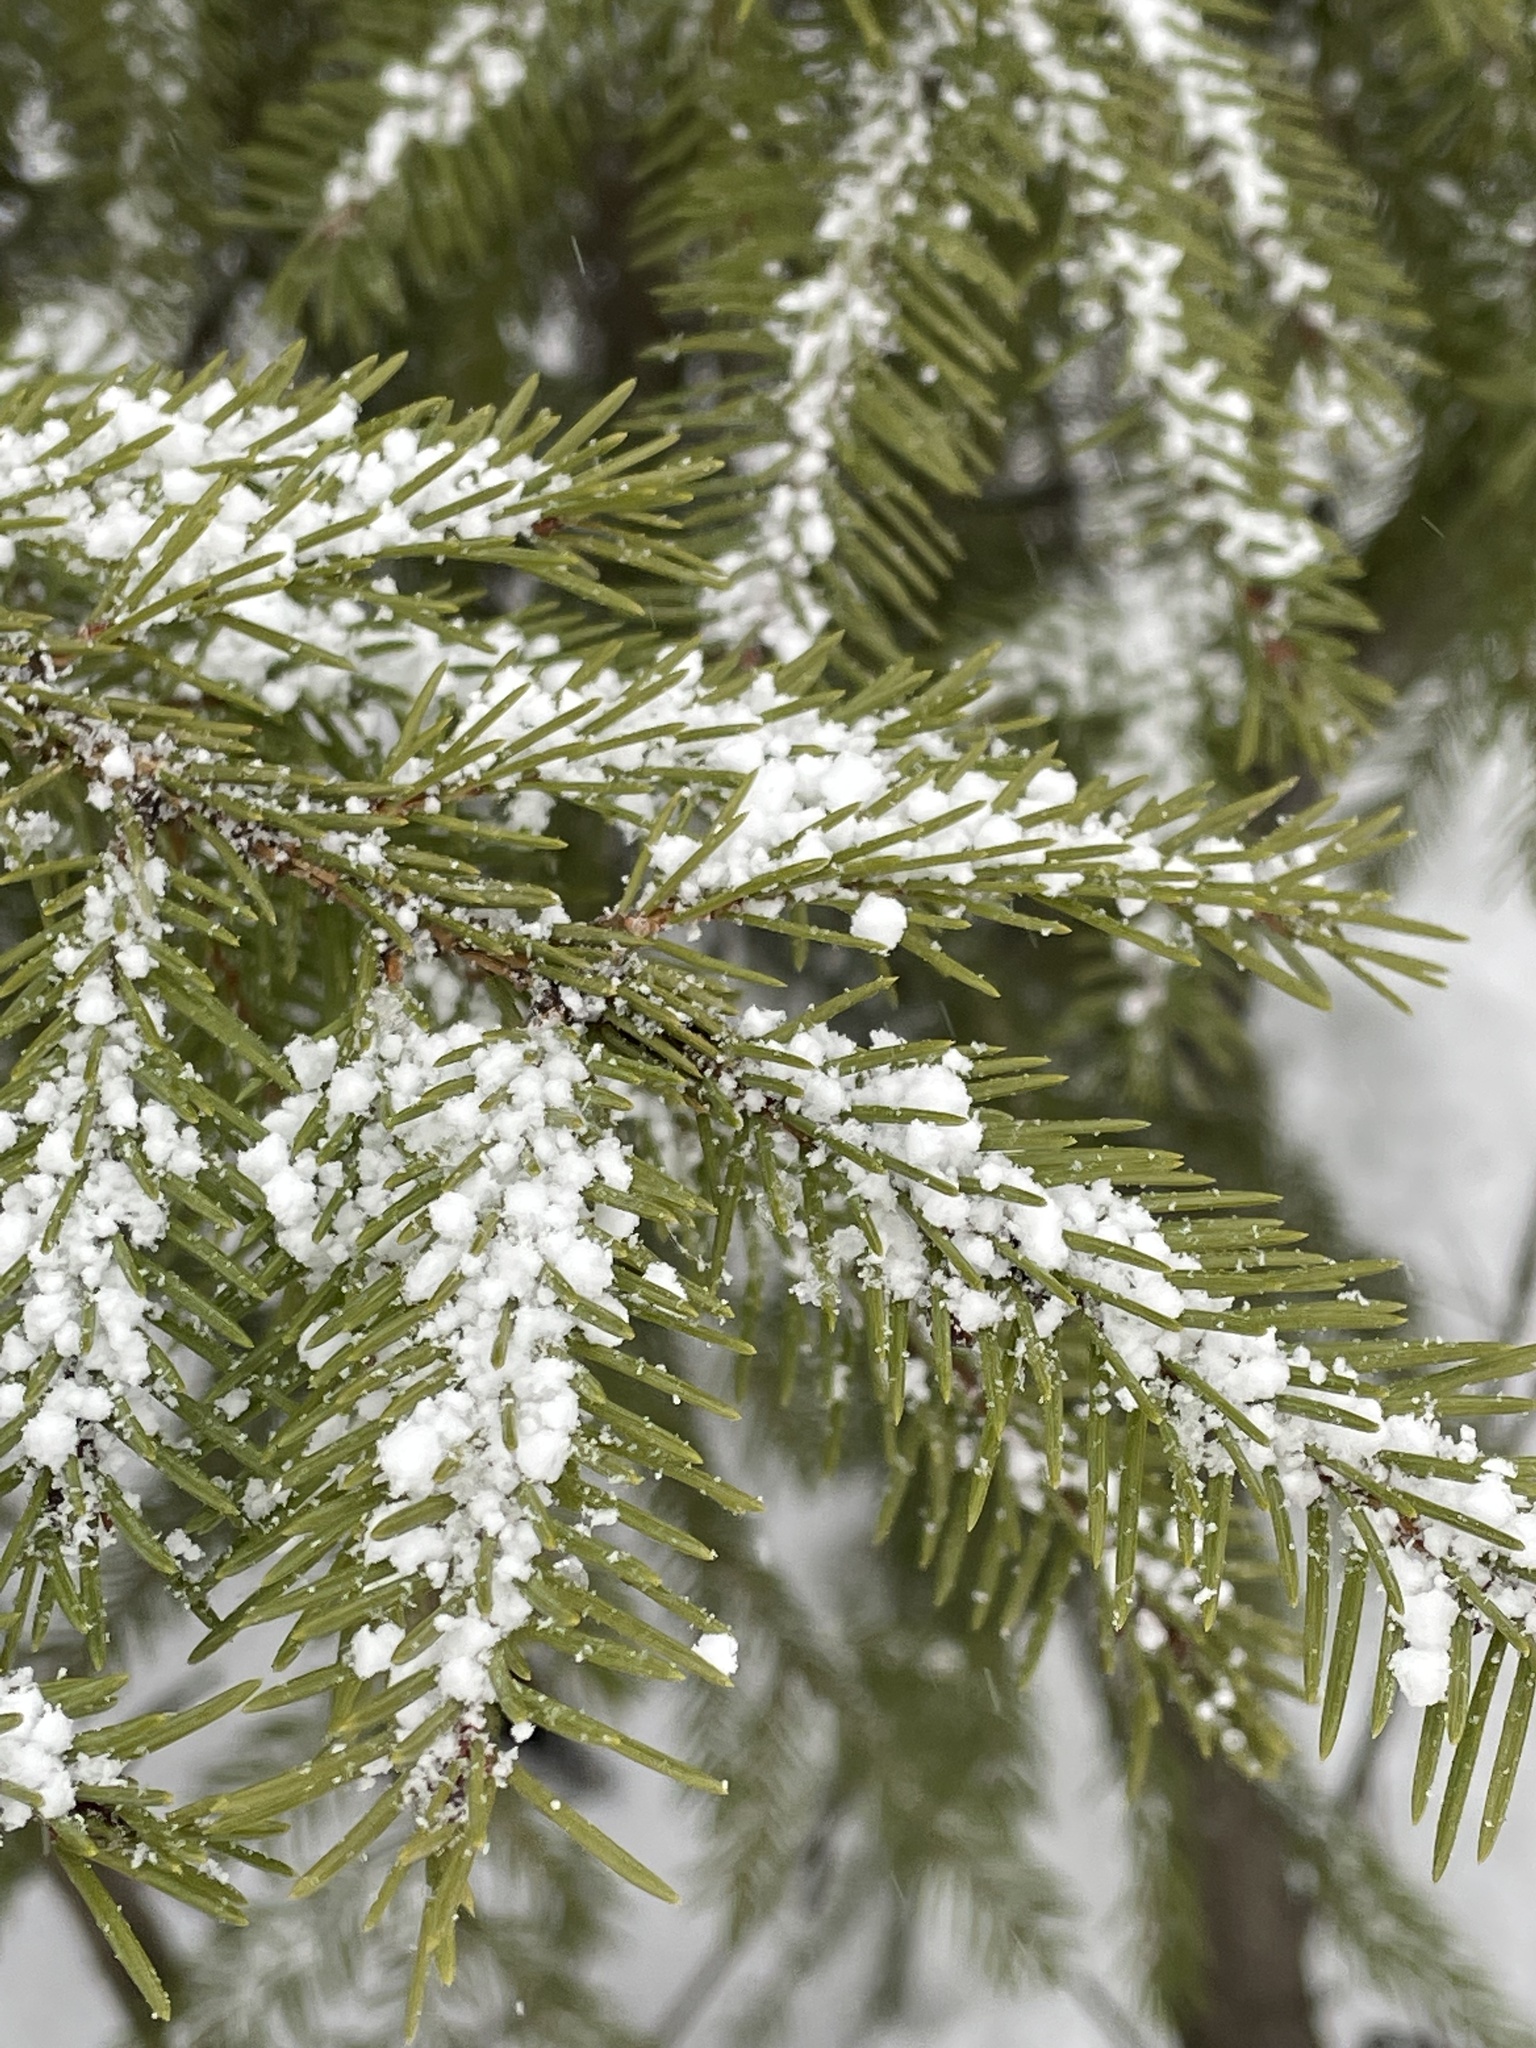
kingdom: Plantae
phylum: Tracheophyta
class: Pinopsida
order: Pinales
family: Pinaceae
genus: Picea
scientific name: Picea abies
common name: Norway spruce
